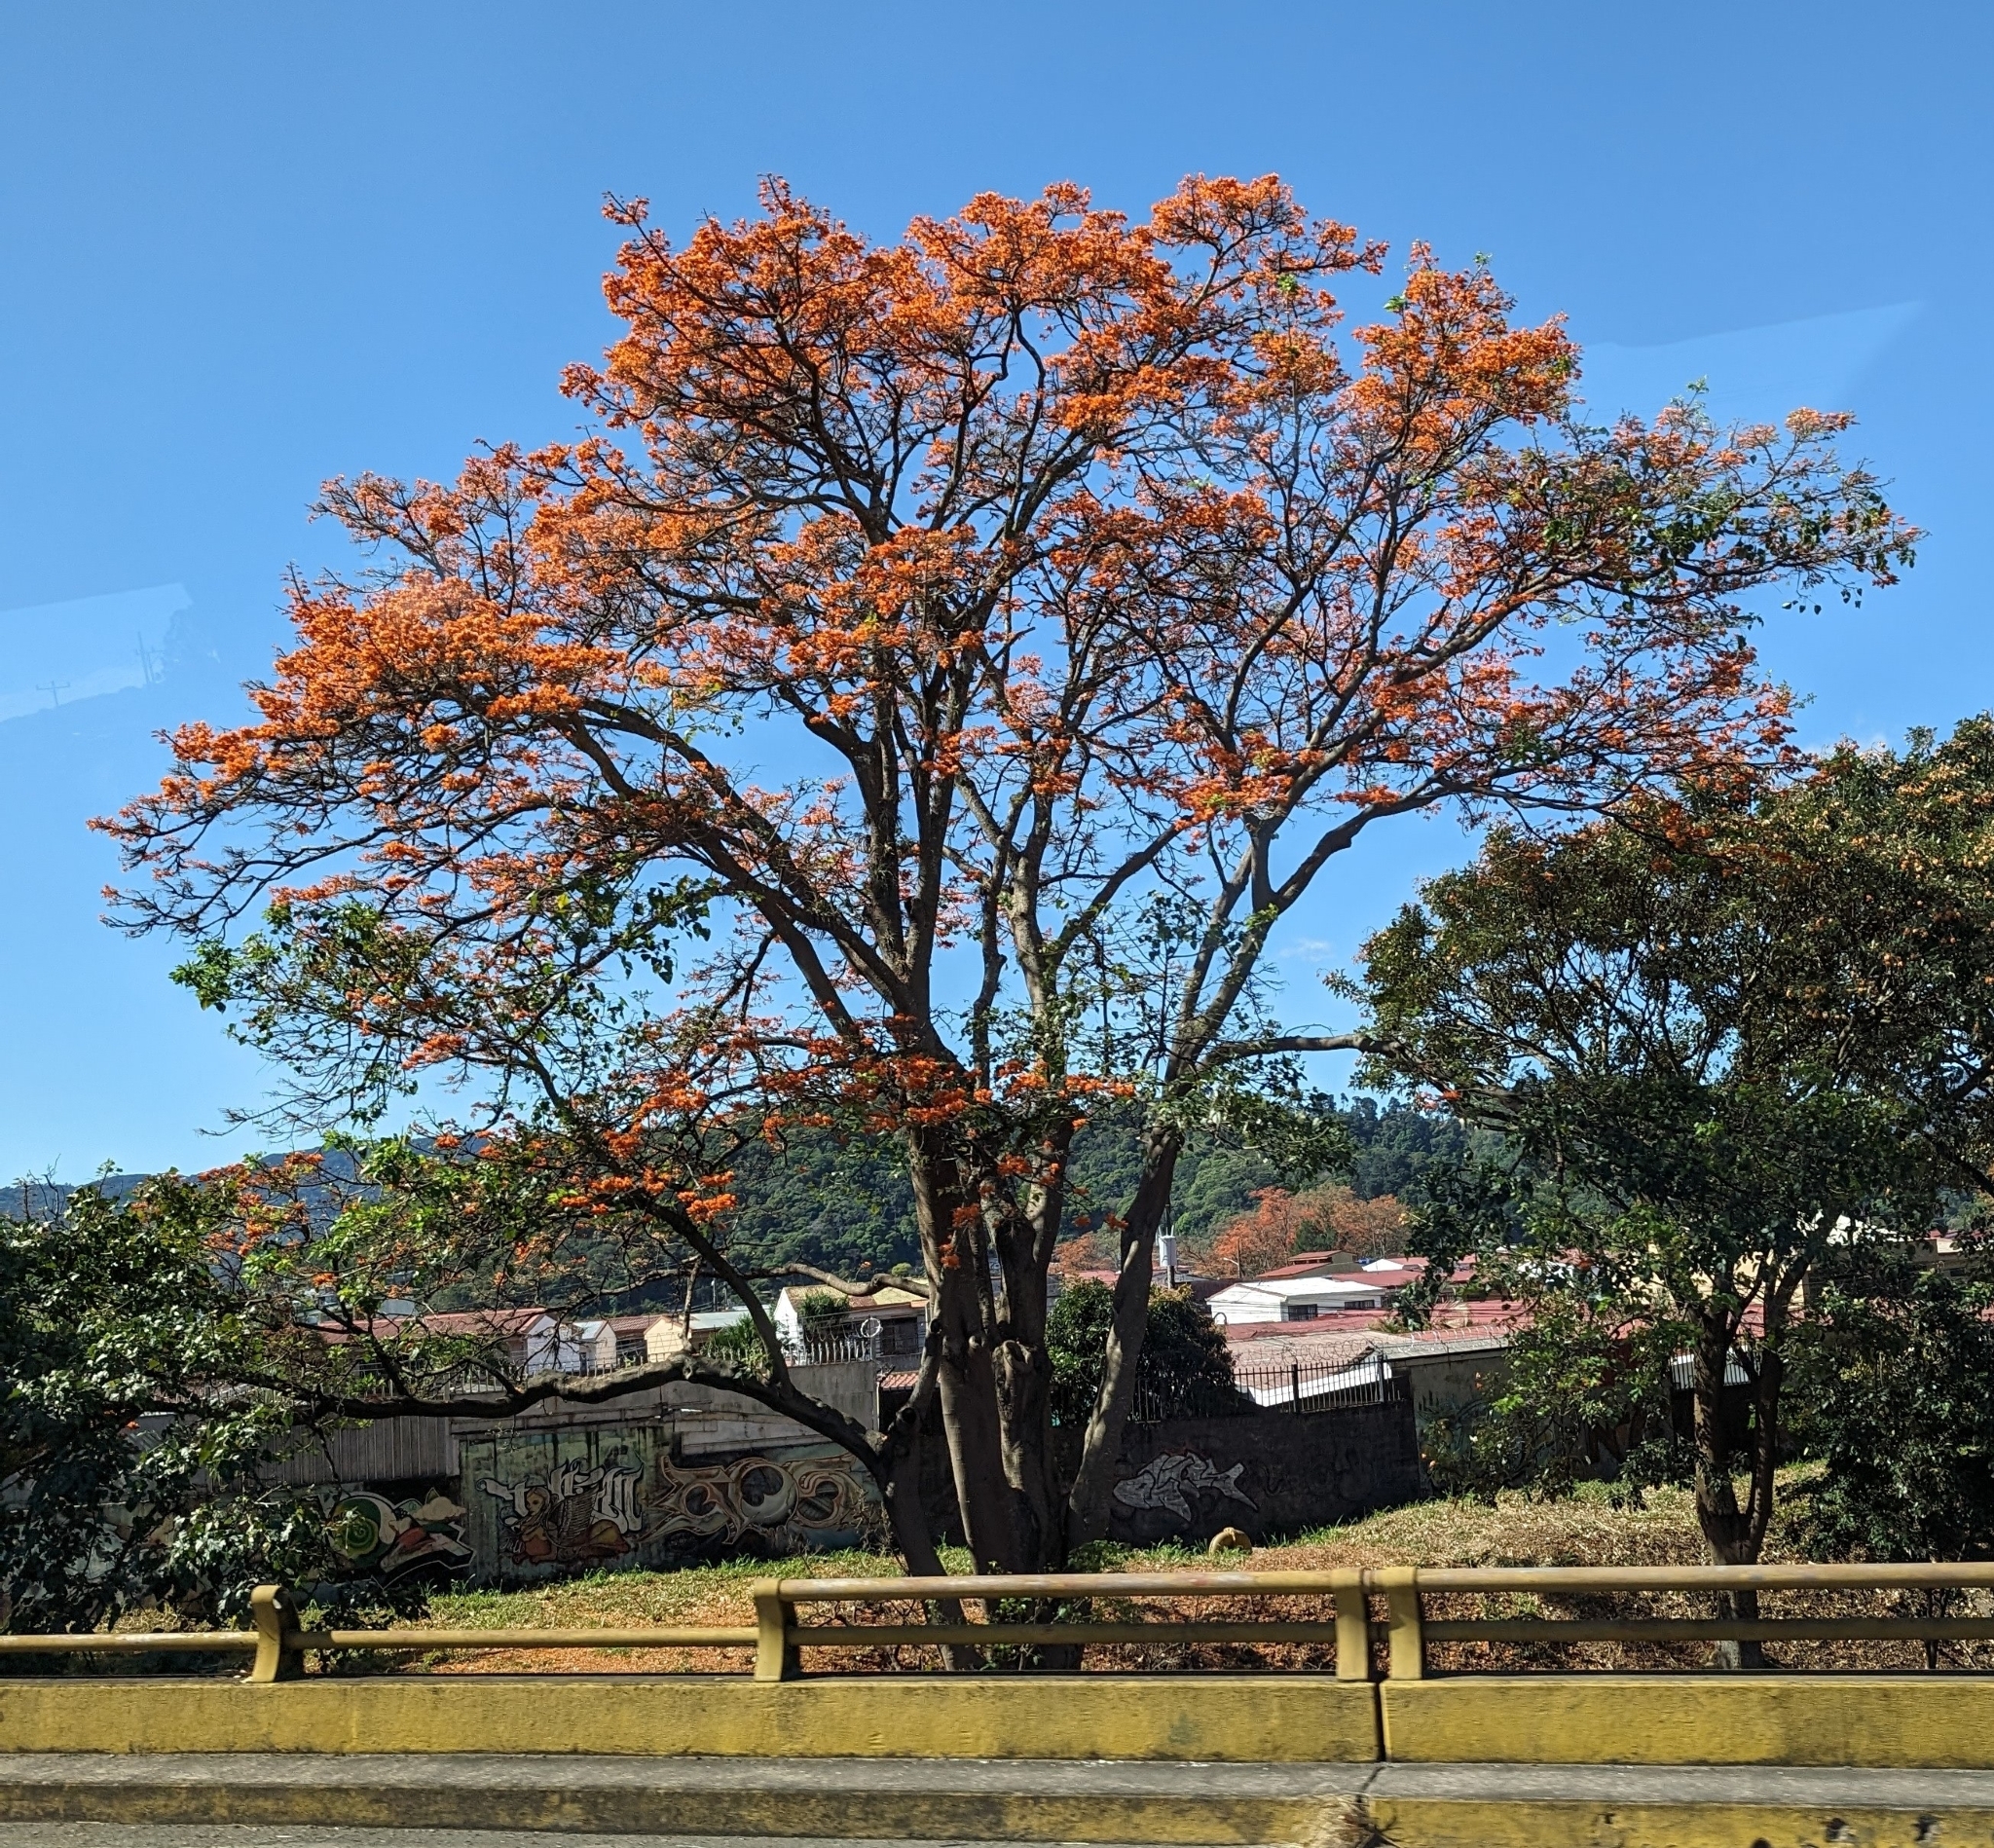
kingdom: Plantae
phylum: Tracheophyta
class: Magnoliopsida
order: Fabales
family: Fabaceae
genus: Erythrina
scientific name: Erythrina poeppigiana
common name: Coral tree
